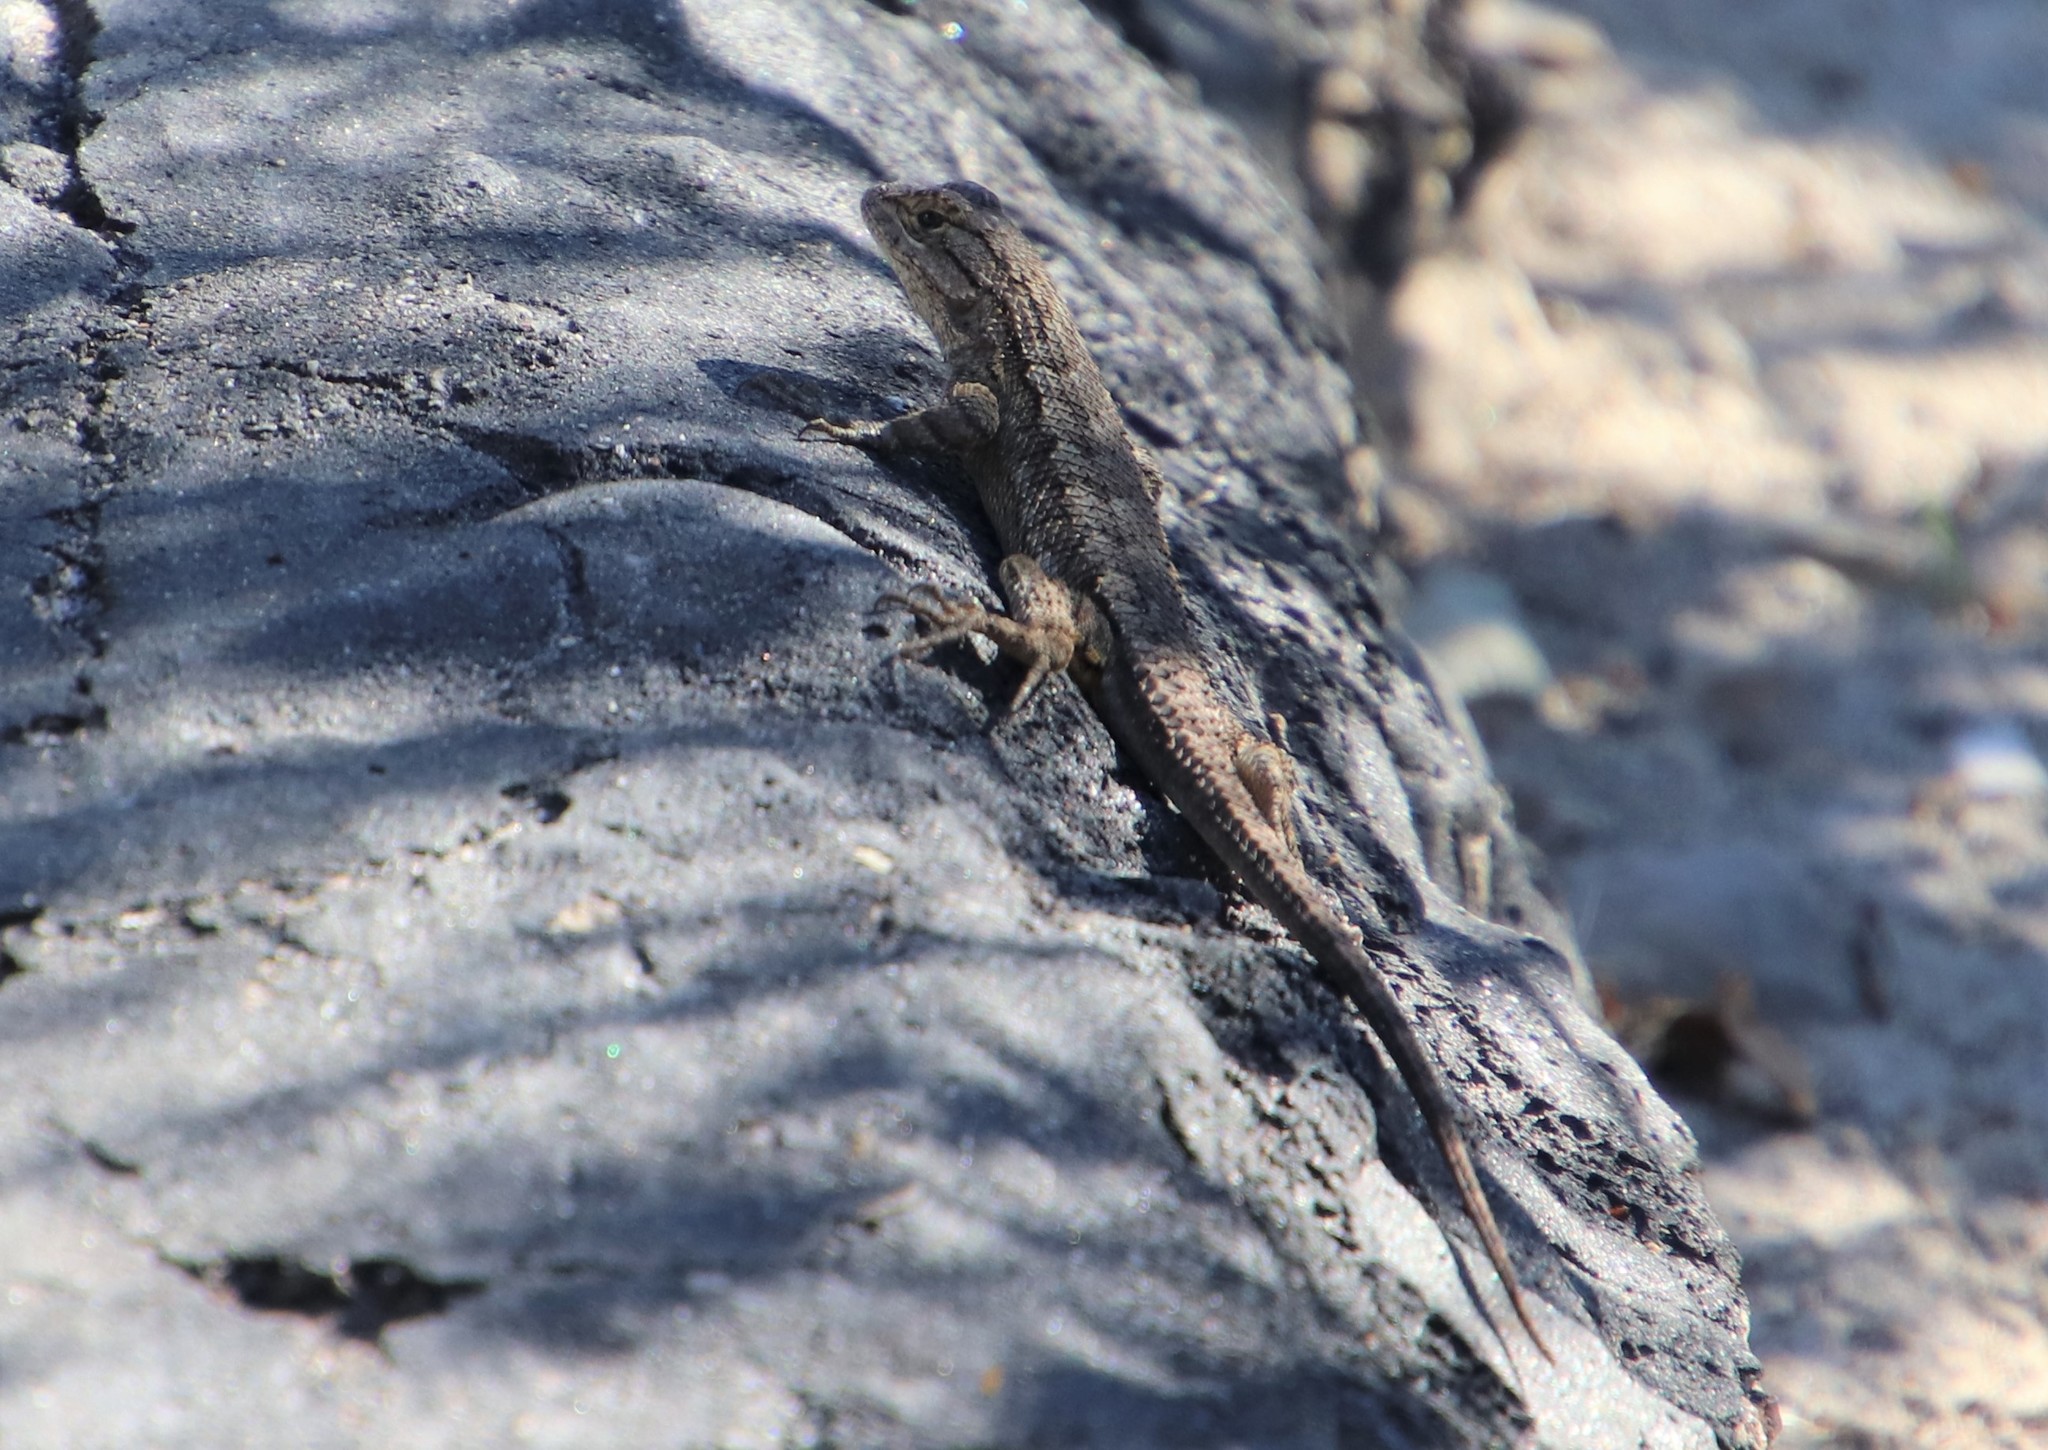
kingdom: Animalia
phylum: Chordata
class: Squamata
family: Phrynosomatidae
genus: Sceloporus
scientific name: Sceloporus occidentalis
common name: Western fence lizard
